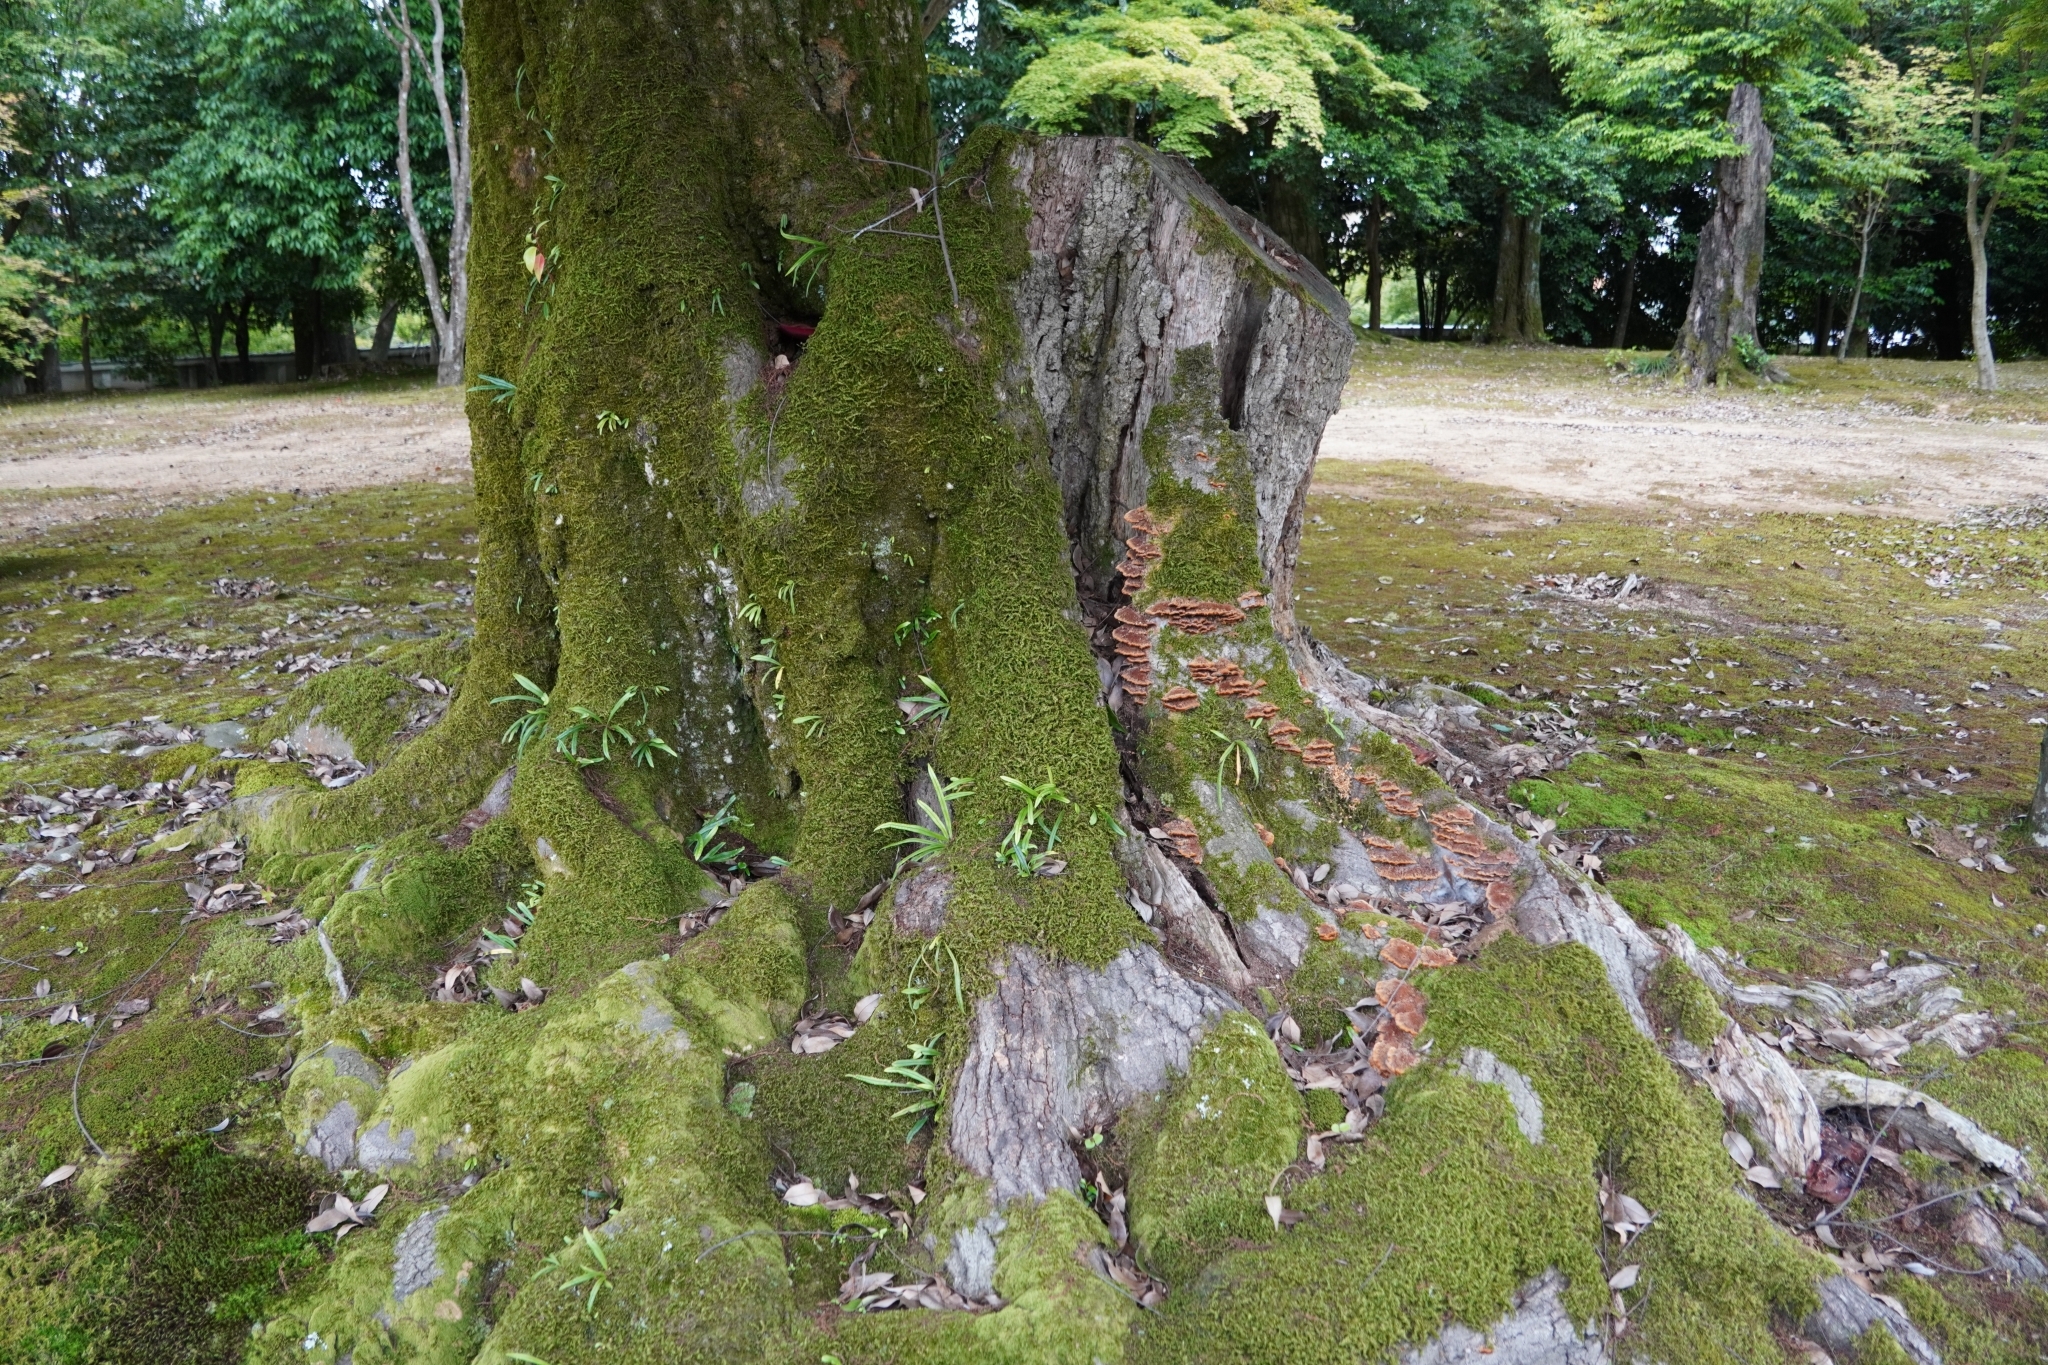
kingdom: Fungi
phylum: Basidiomycota
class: Agaricomycetes
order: Agaricales
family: Fistulinaceae
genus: Fistulina
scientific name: Fistulina hepatica
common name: Beef-steak fungus
